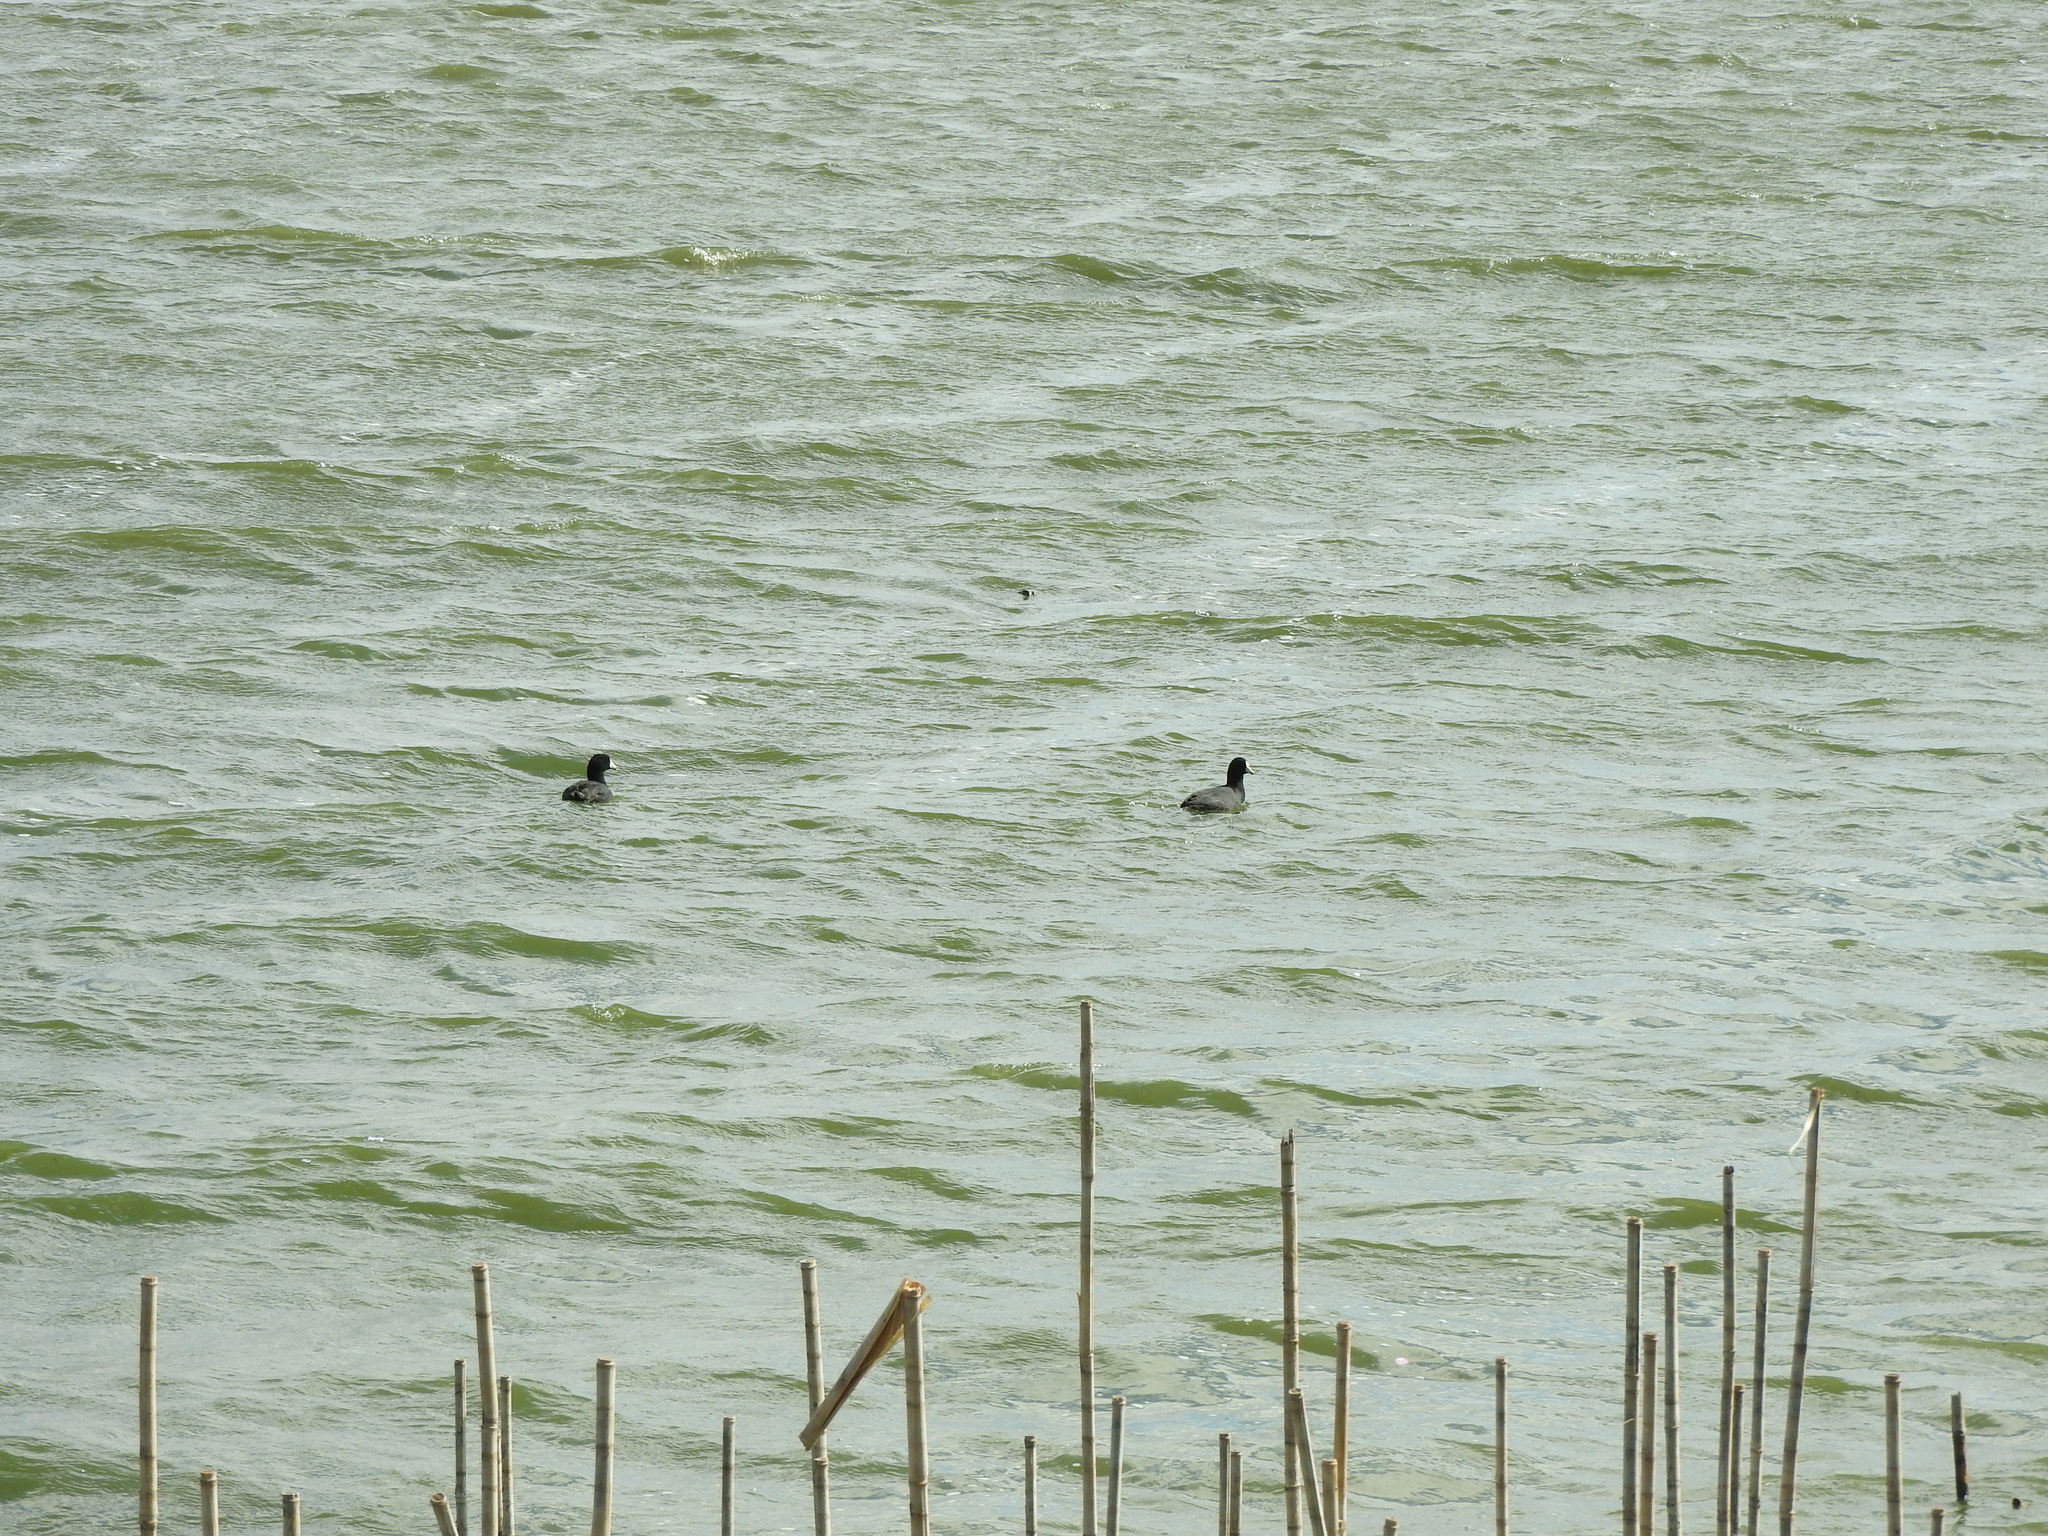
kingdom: Animalia
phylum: Chordata
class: Aves
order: Gruiformes
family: Rallidae
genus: Fulica
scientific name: Fulica americana
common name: American coot
